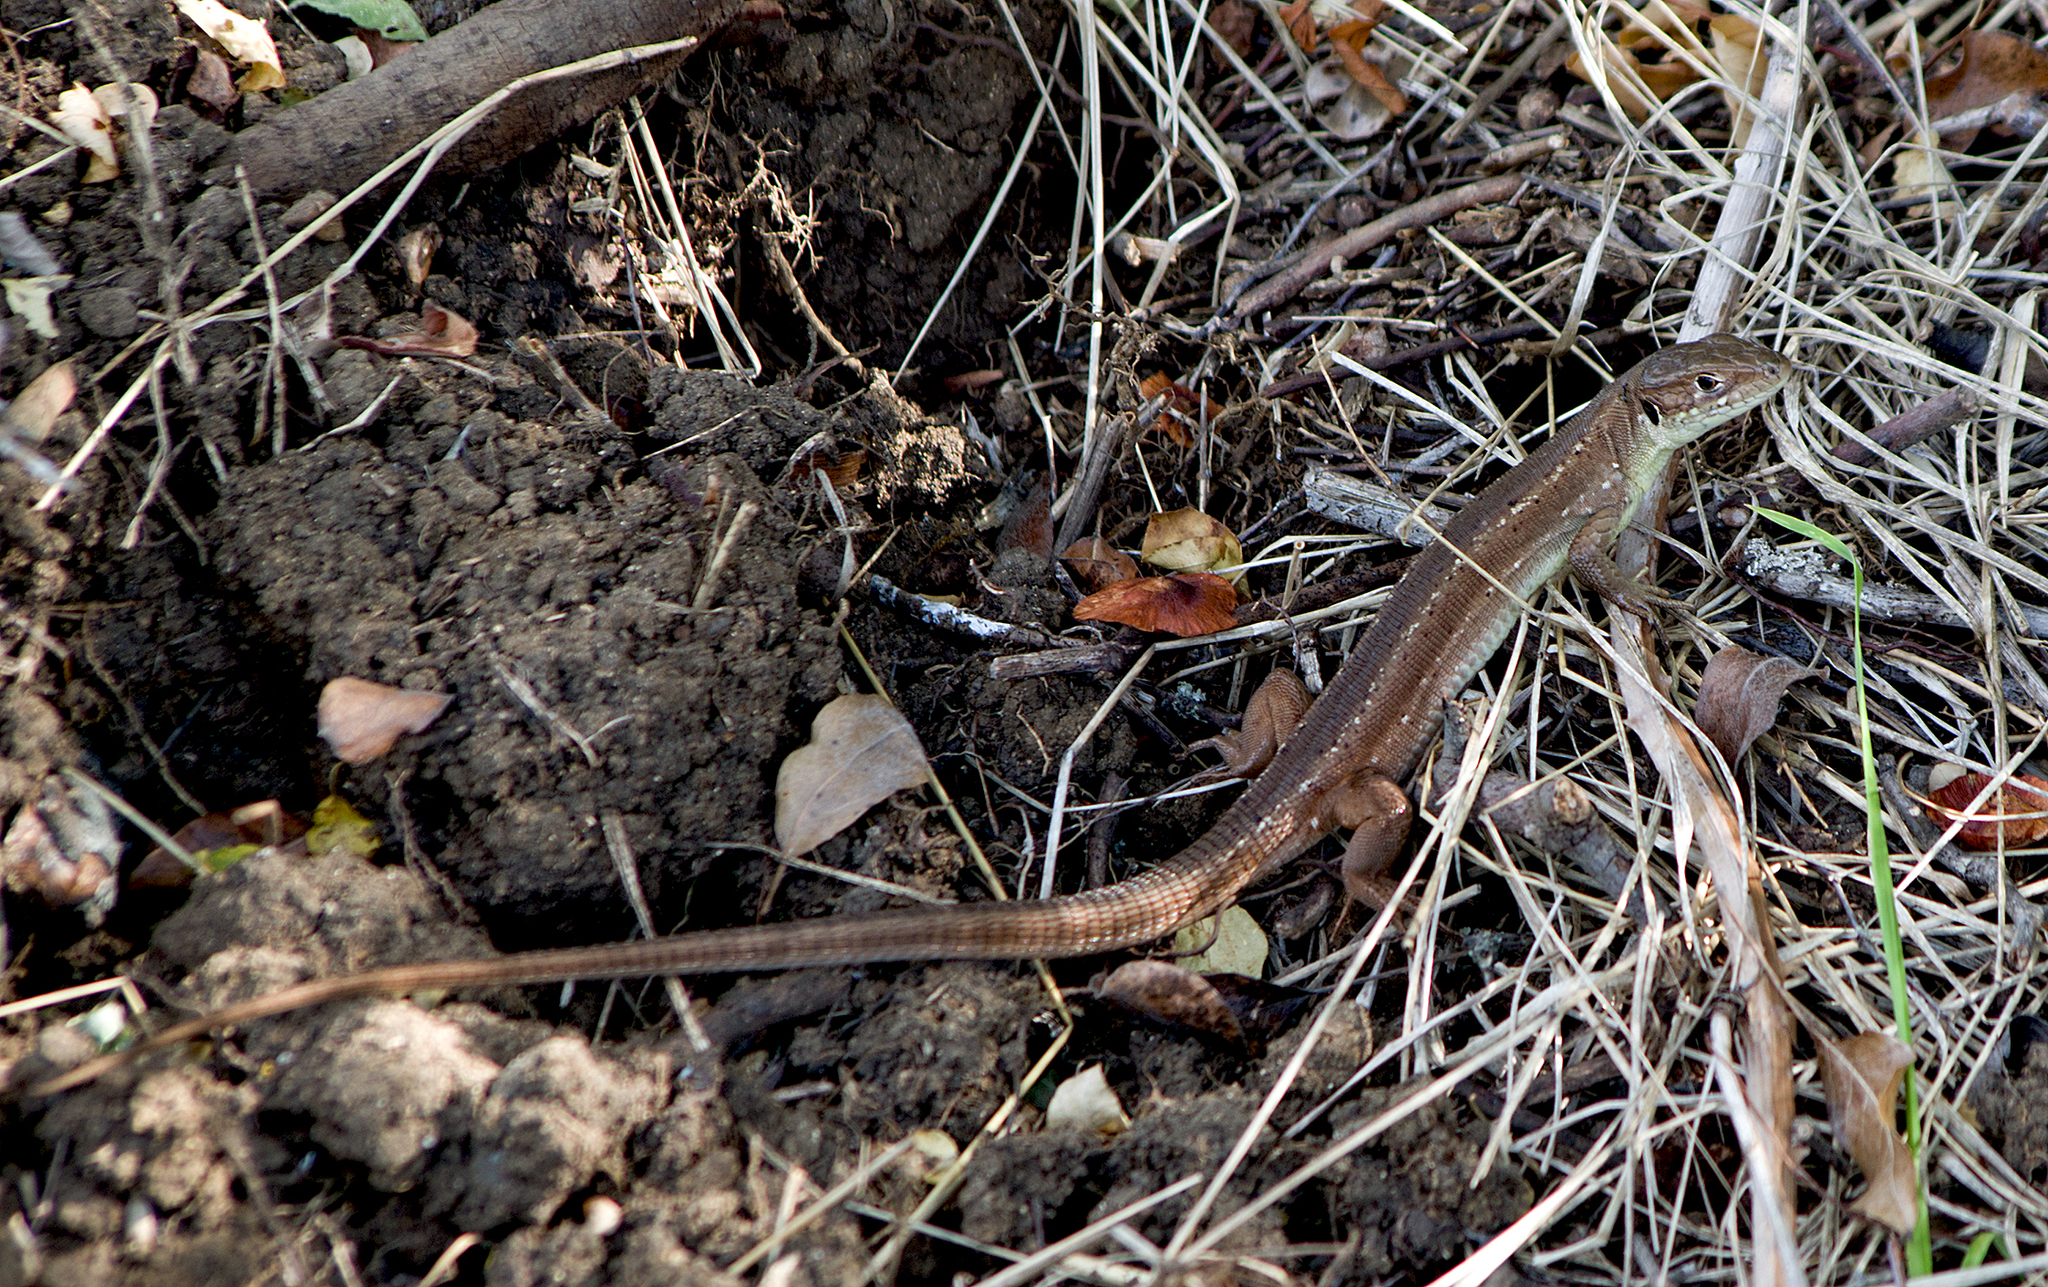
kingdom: Animalia
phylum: Chordata
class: Squamata
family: Lacertidae
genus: Lacerta
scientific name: Lacerta viridis
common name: European green lizard
